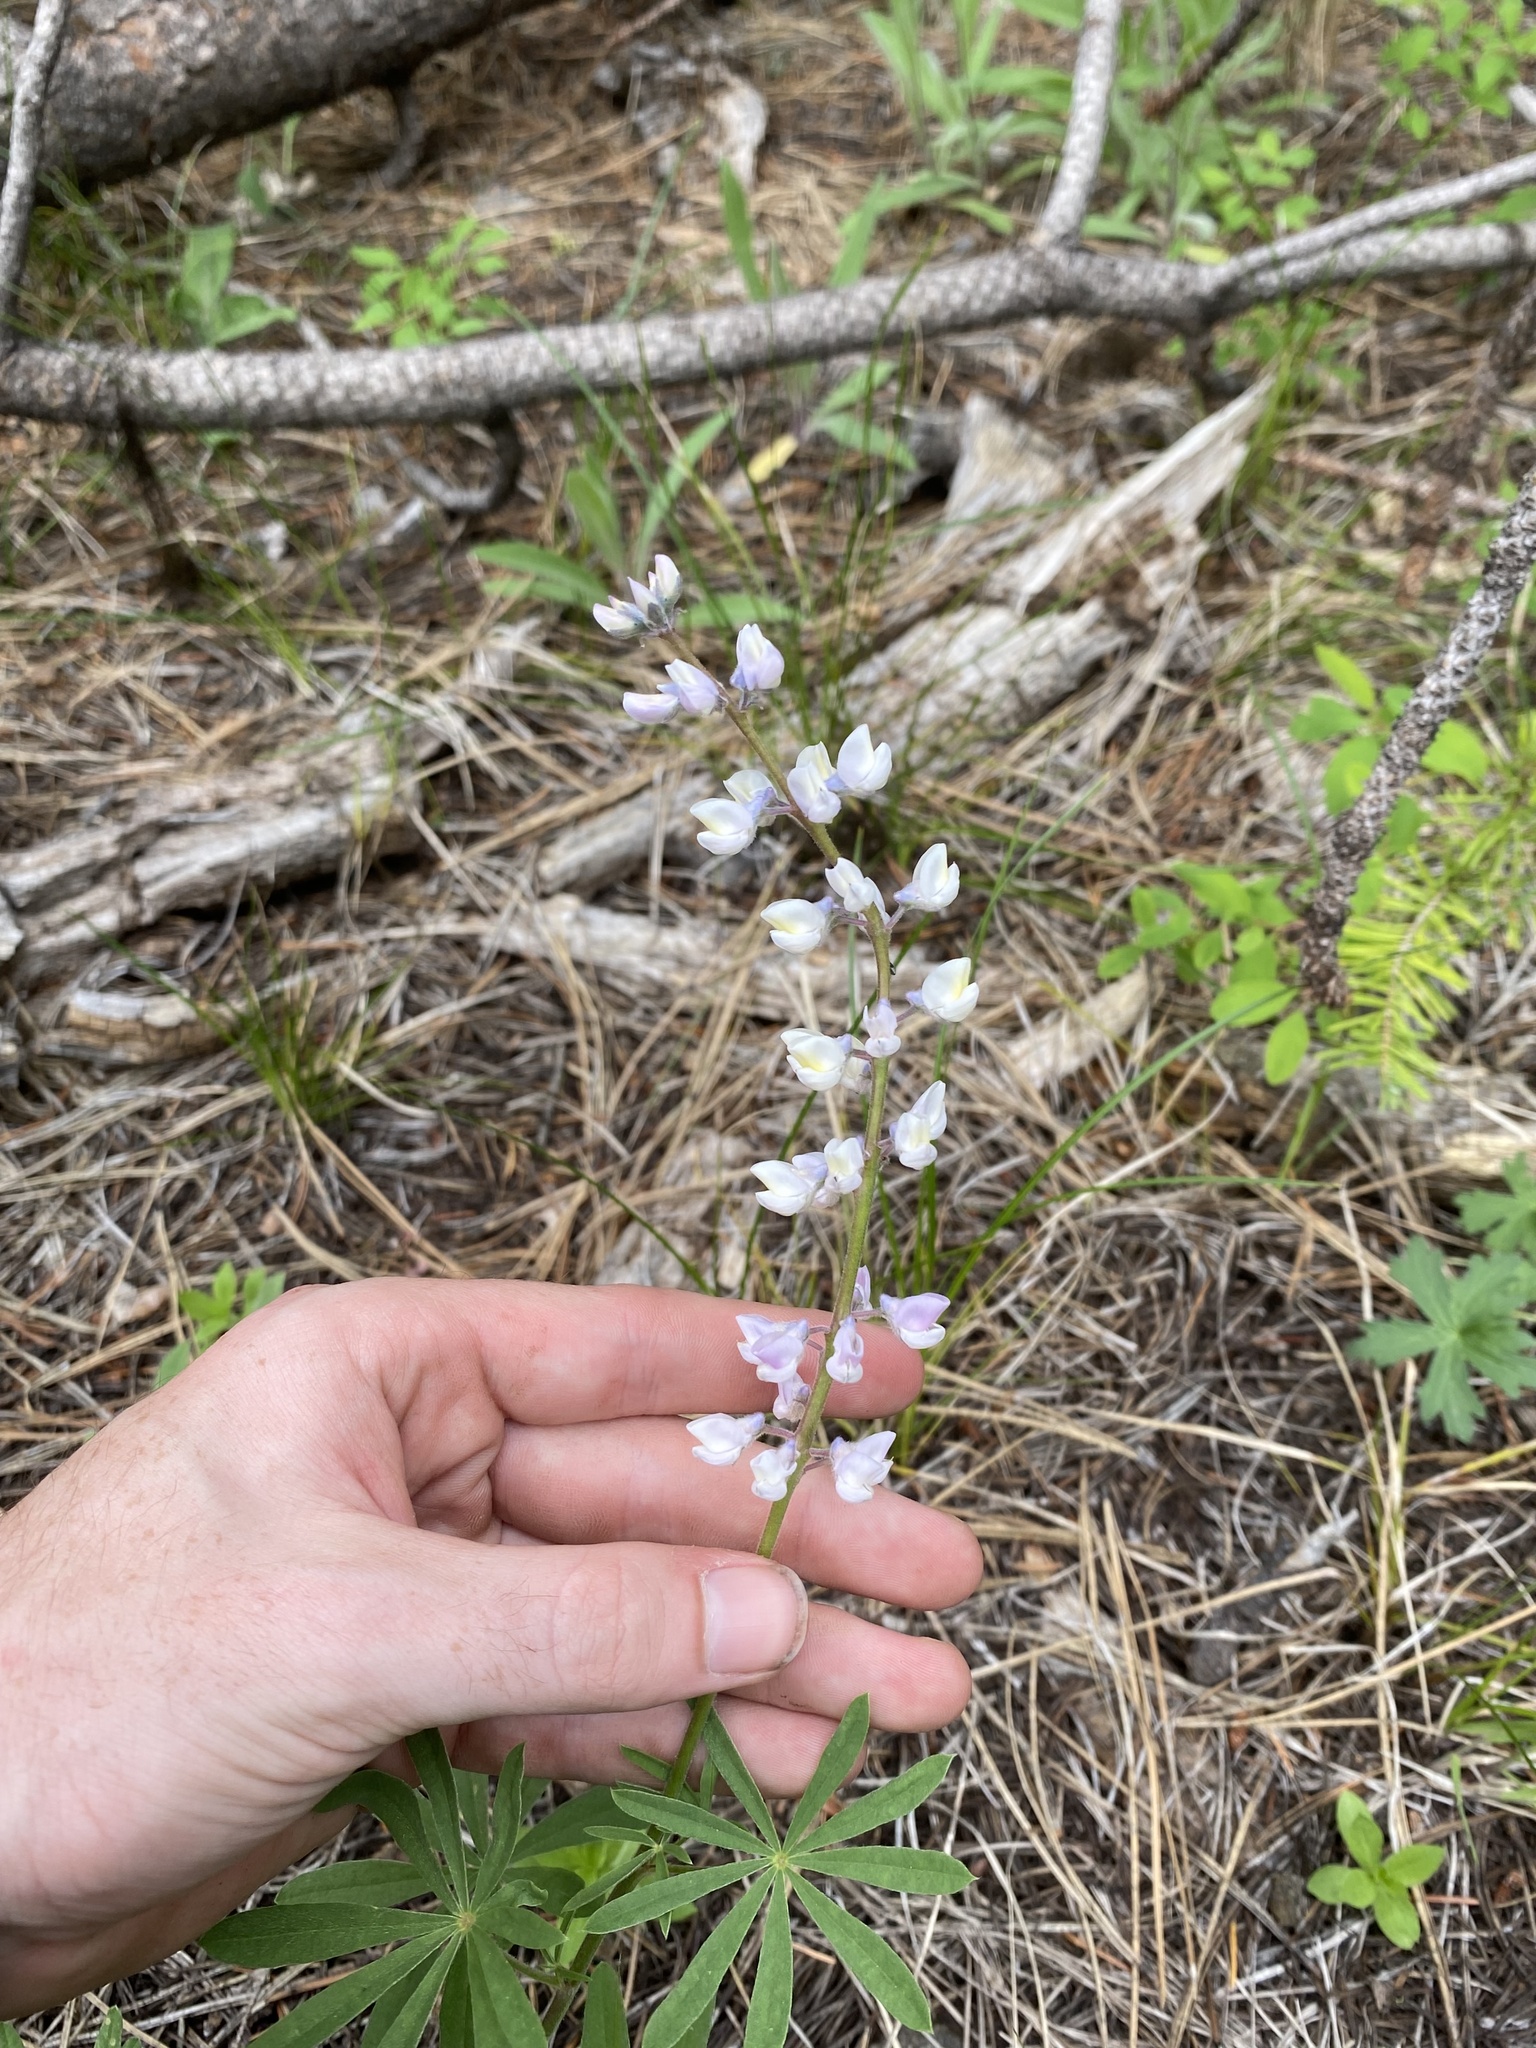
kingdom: Plantae
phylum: Tracheophyta
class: Magnoliopsida
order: Fabales
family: Fabaceae
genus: Lupinus
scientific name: Lupinus arbustus
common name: Montana lupine
